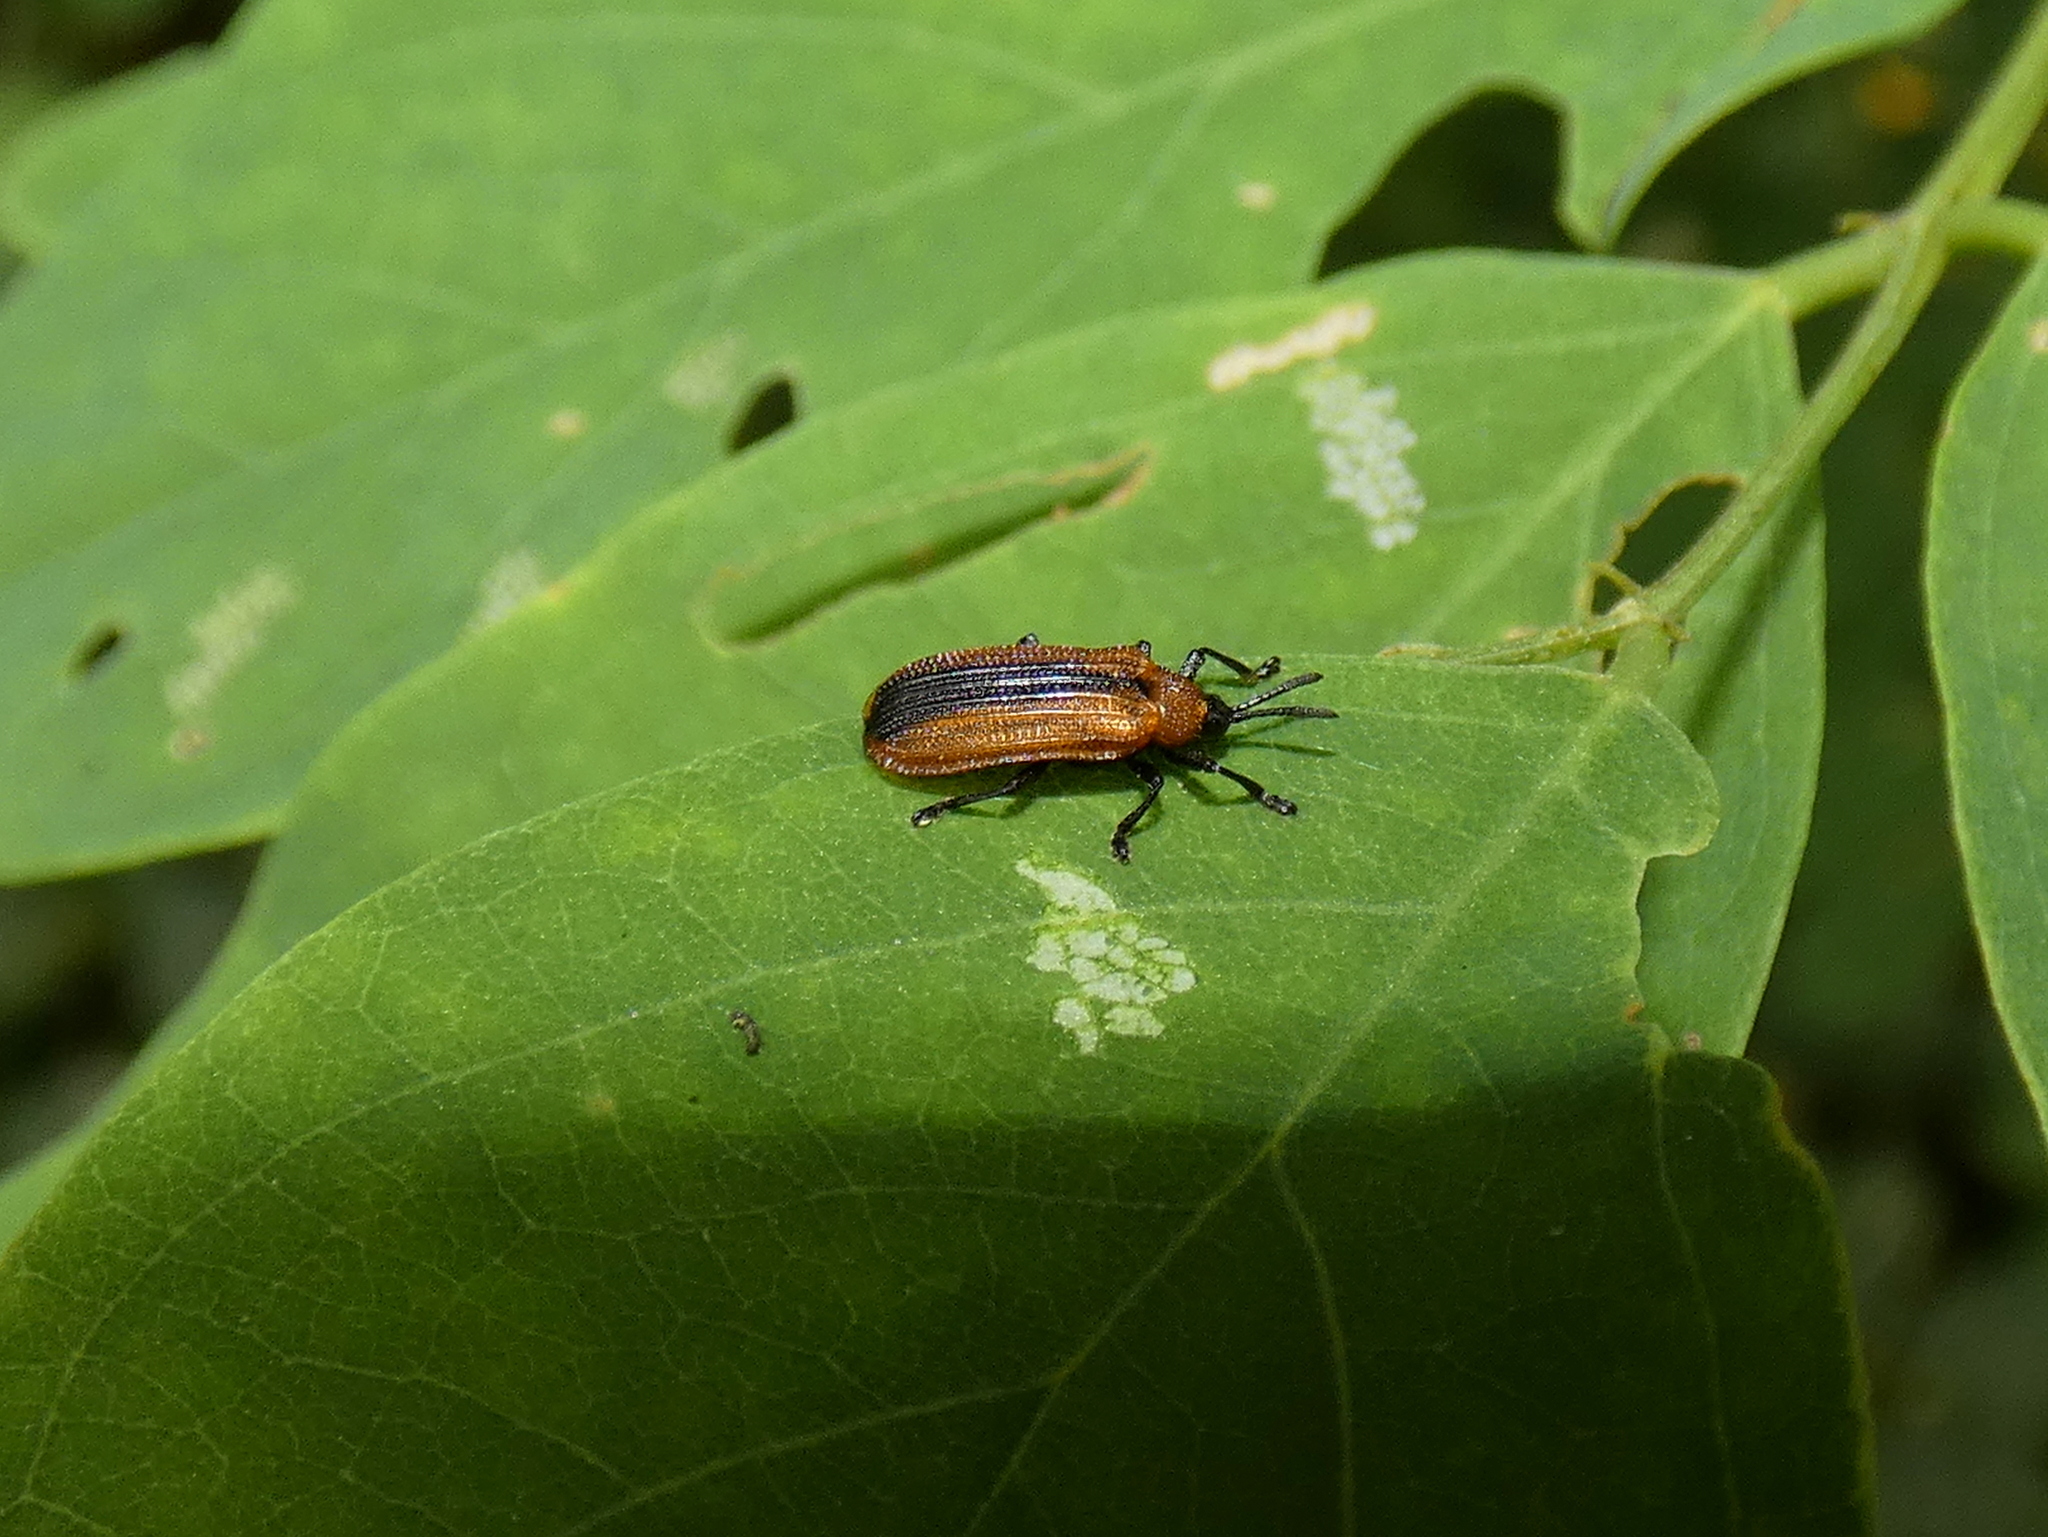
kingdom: Animalia
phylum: Arthropoda
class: Insecta
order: Coleoptera
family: Chrysomelidae
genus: Odontota
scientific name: Odontota dorsalis
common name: Locust leaf-miner beetle
